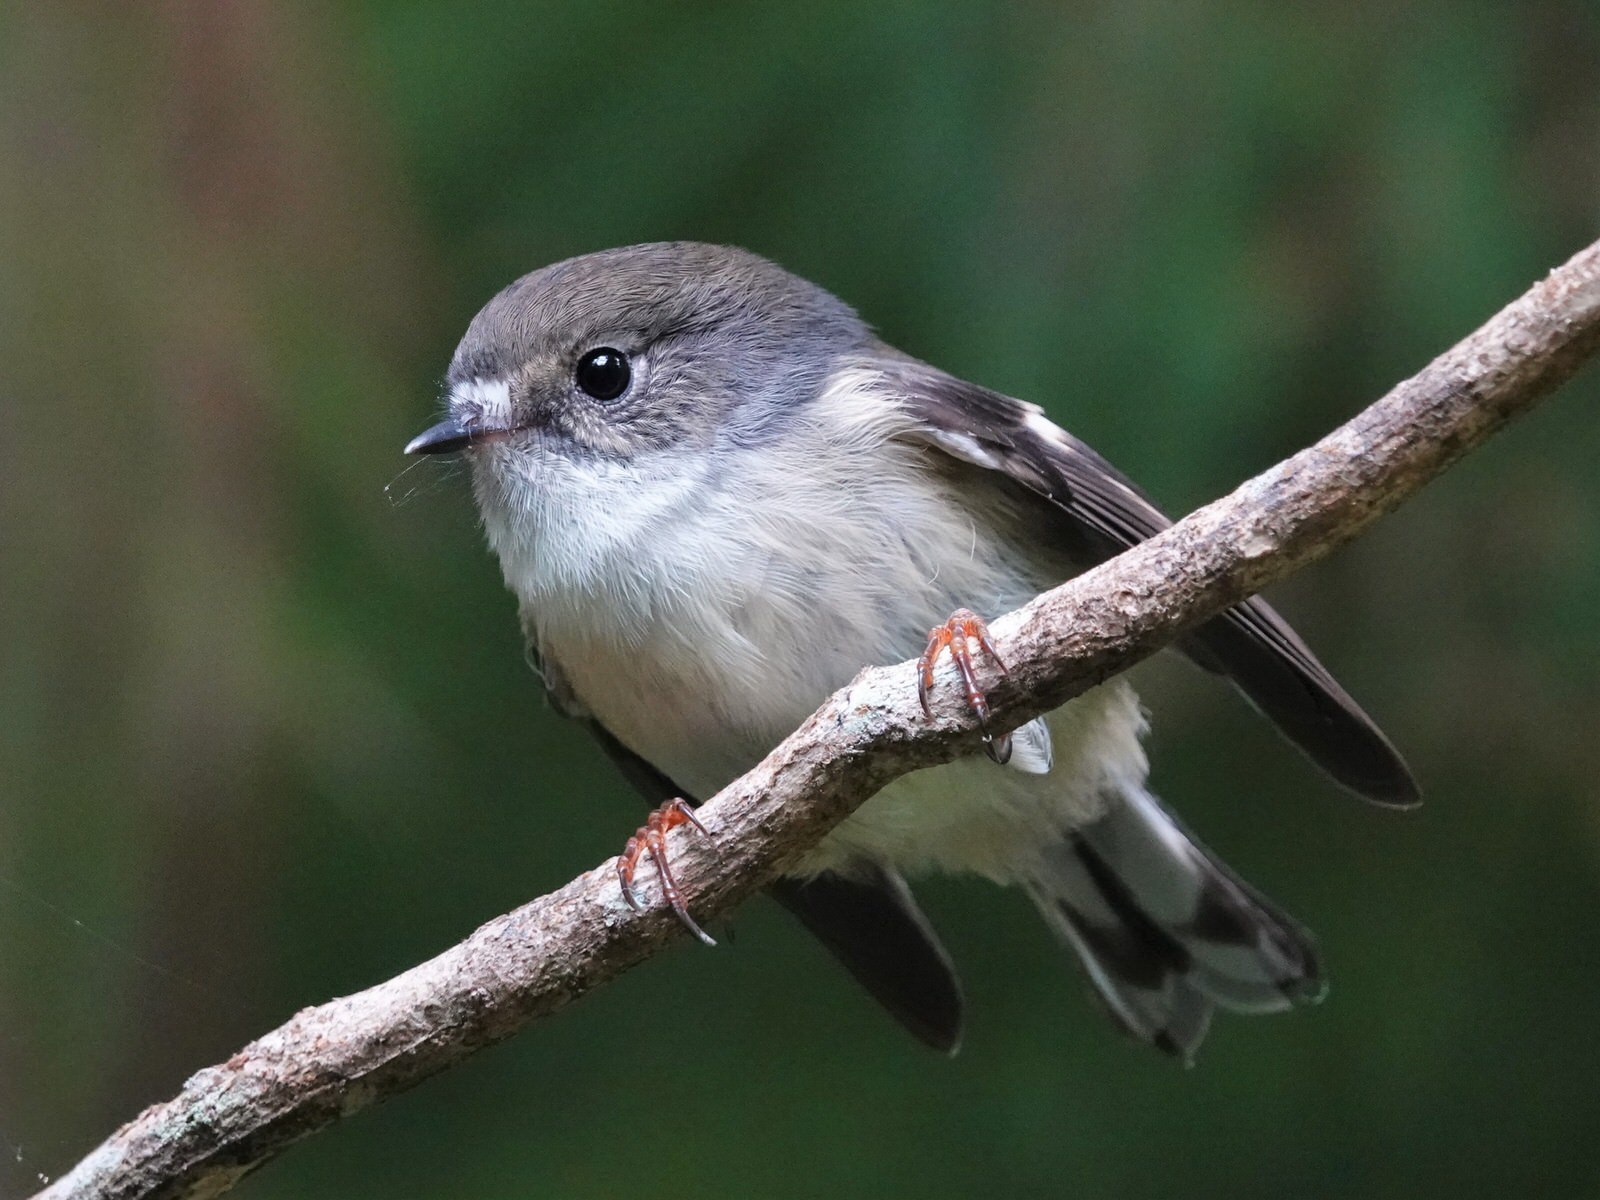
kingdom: Animalia
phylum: Chordata
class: Aves
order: Passeriformes
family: Petroicidae
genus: Petroica
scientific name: Petroica macrocephala
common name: Tomtit
